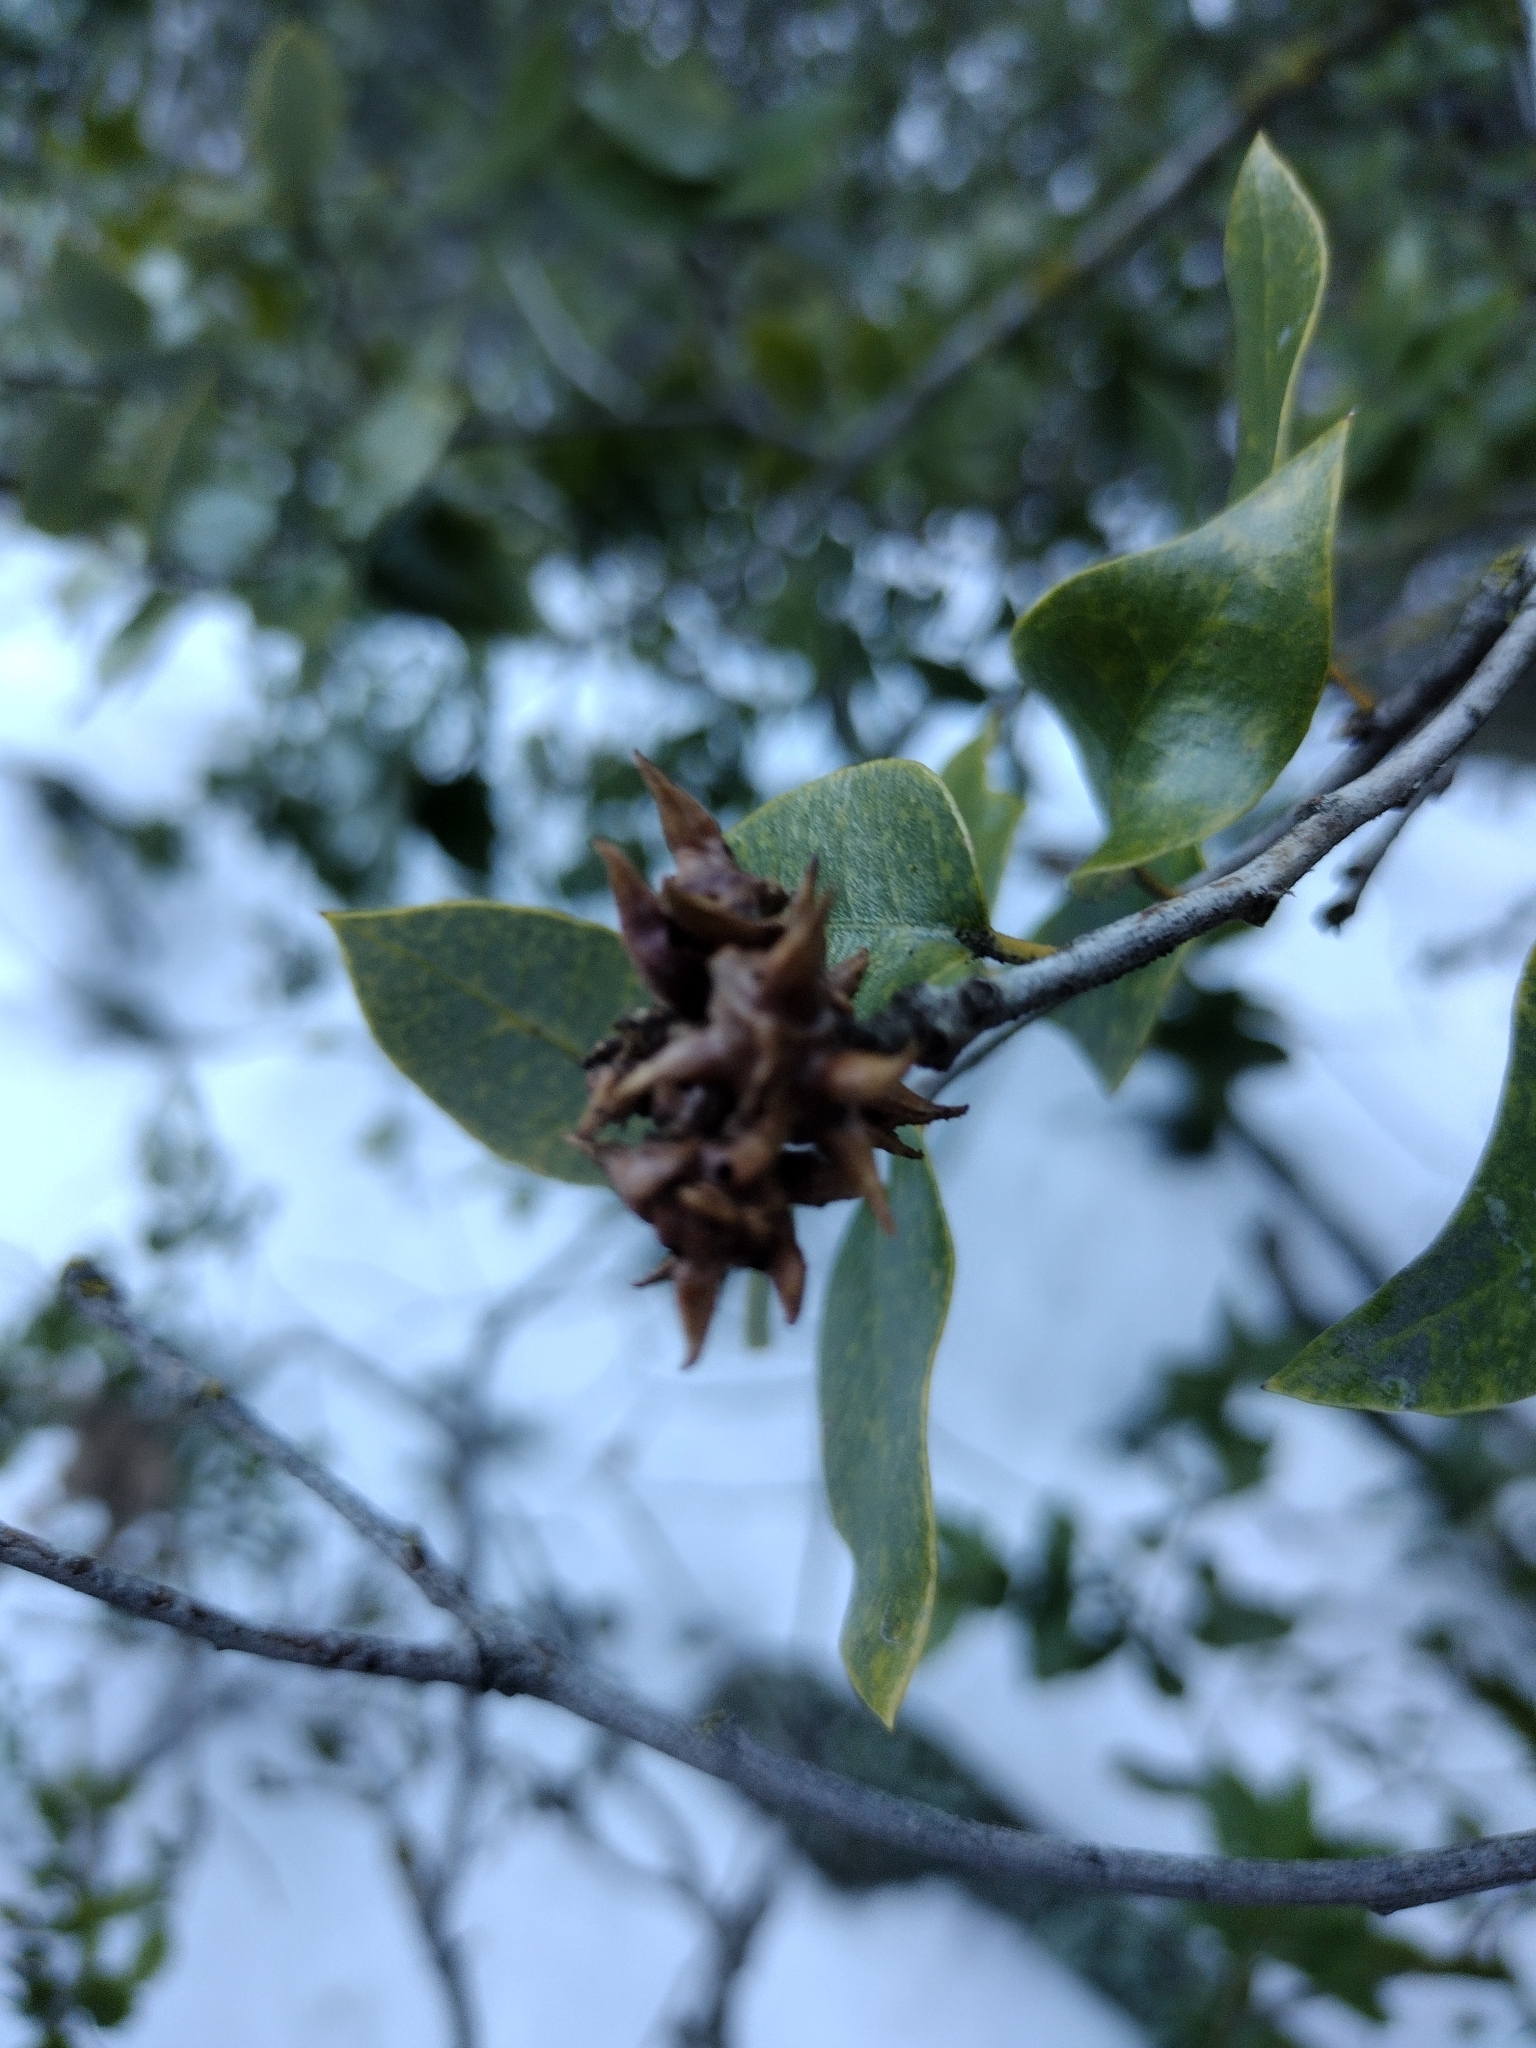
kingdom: Animalia
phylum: Arthropoda
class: Insecta
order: Hymenoptera
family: Cynipidae
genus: Heteroecus
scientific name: Heteroecus pacificus
